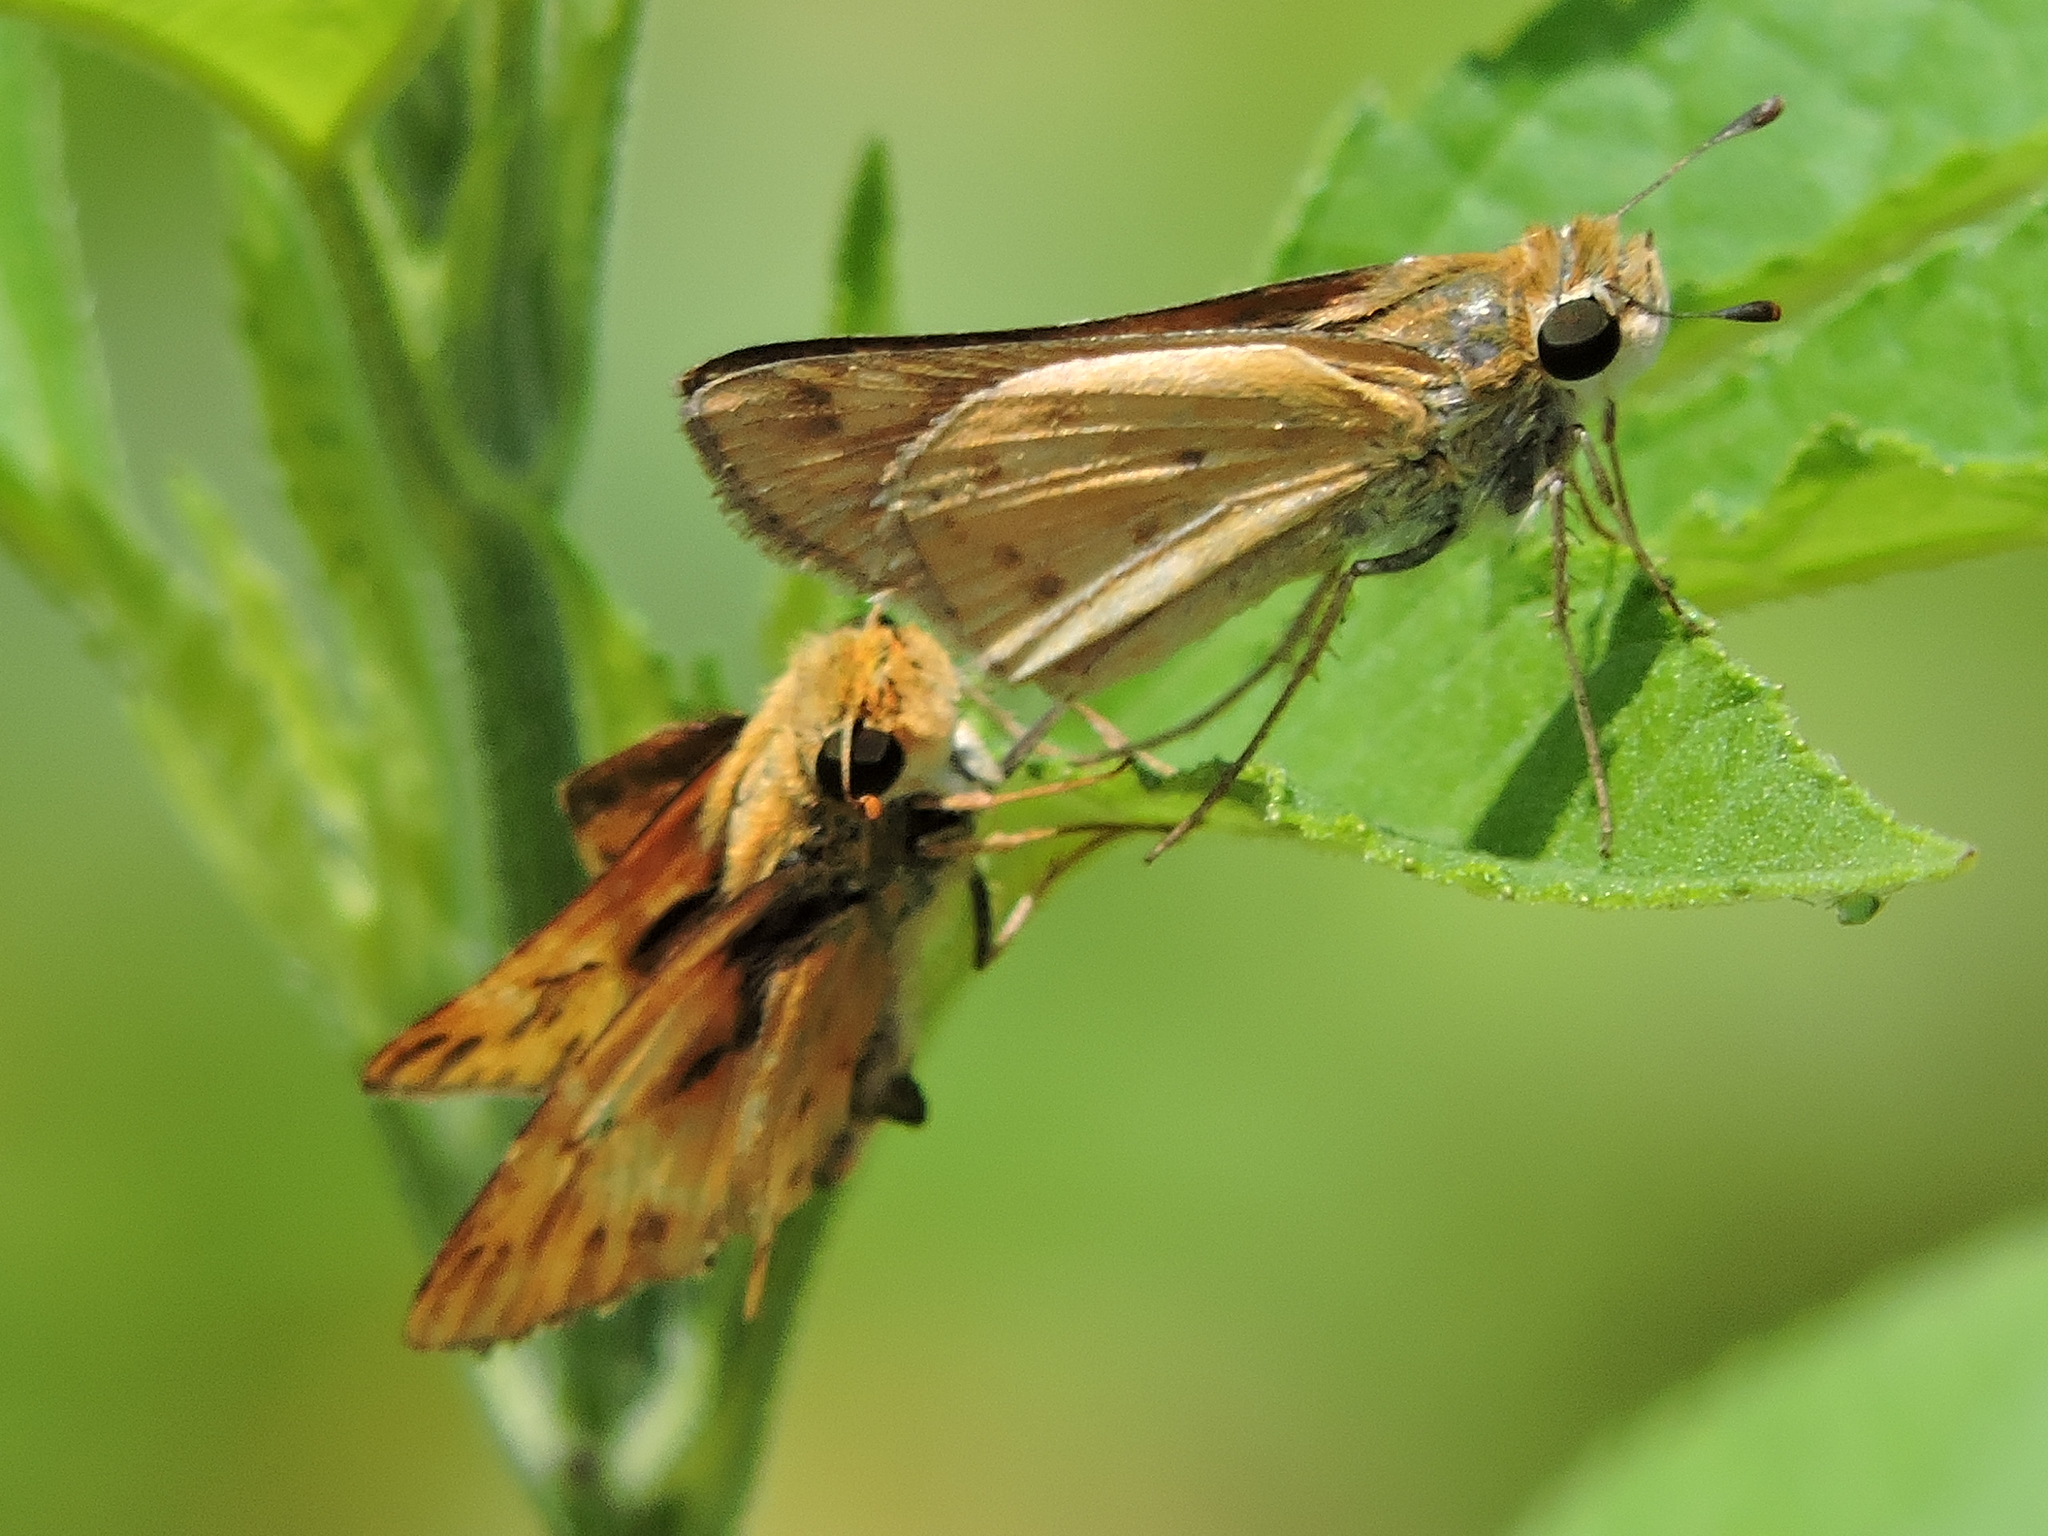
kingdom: Animalia
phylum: Arthropoda
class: Insecta
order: Lepidoptera
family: Hesperiidae
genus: Hylephila
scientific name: Hylephila phyleus
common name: Fiery skipper
